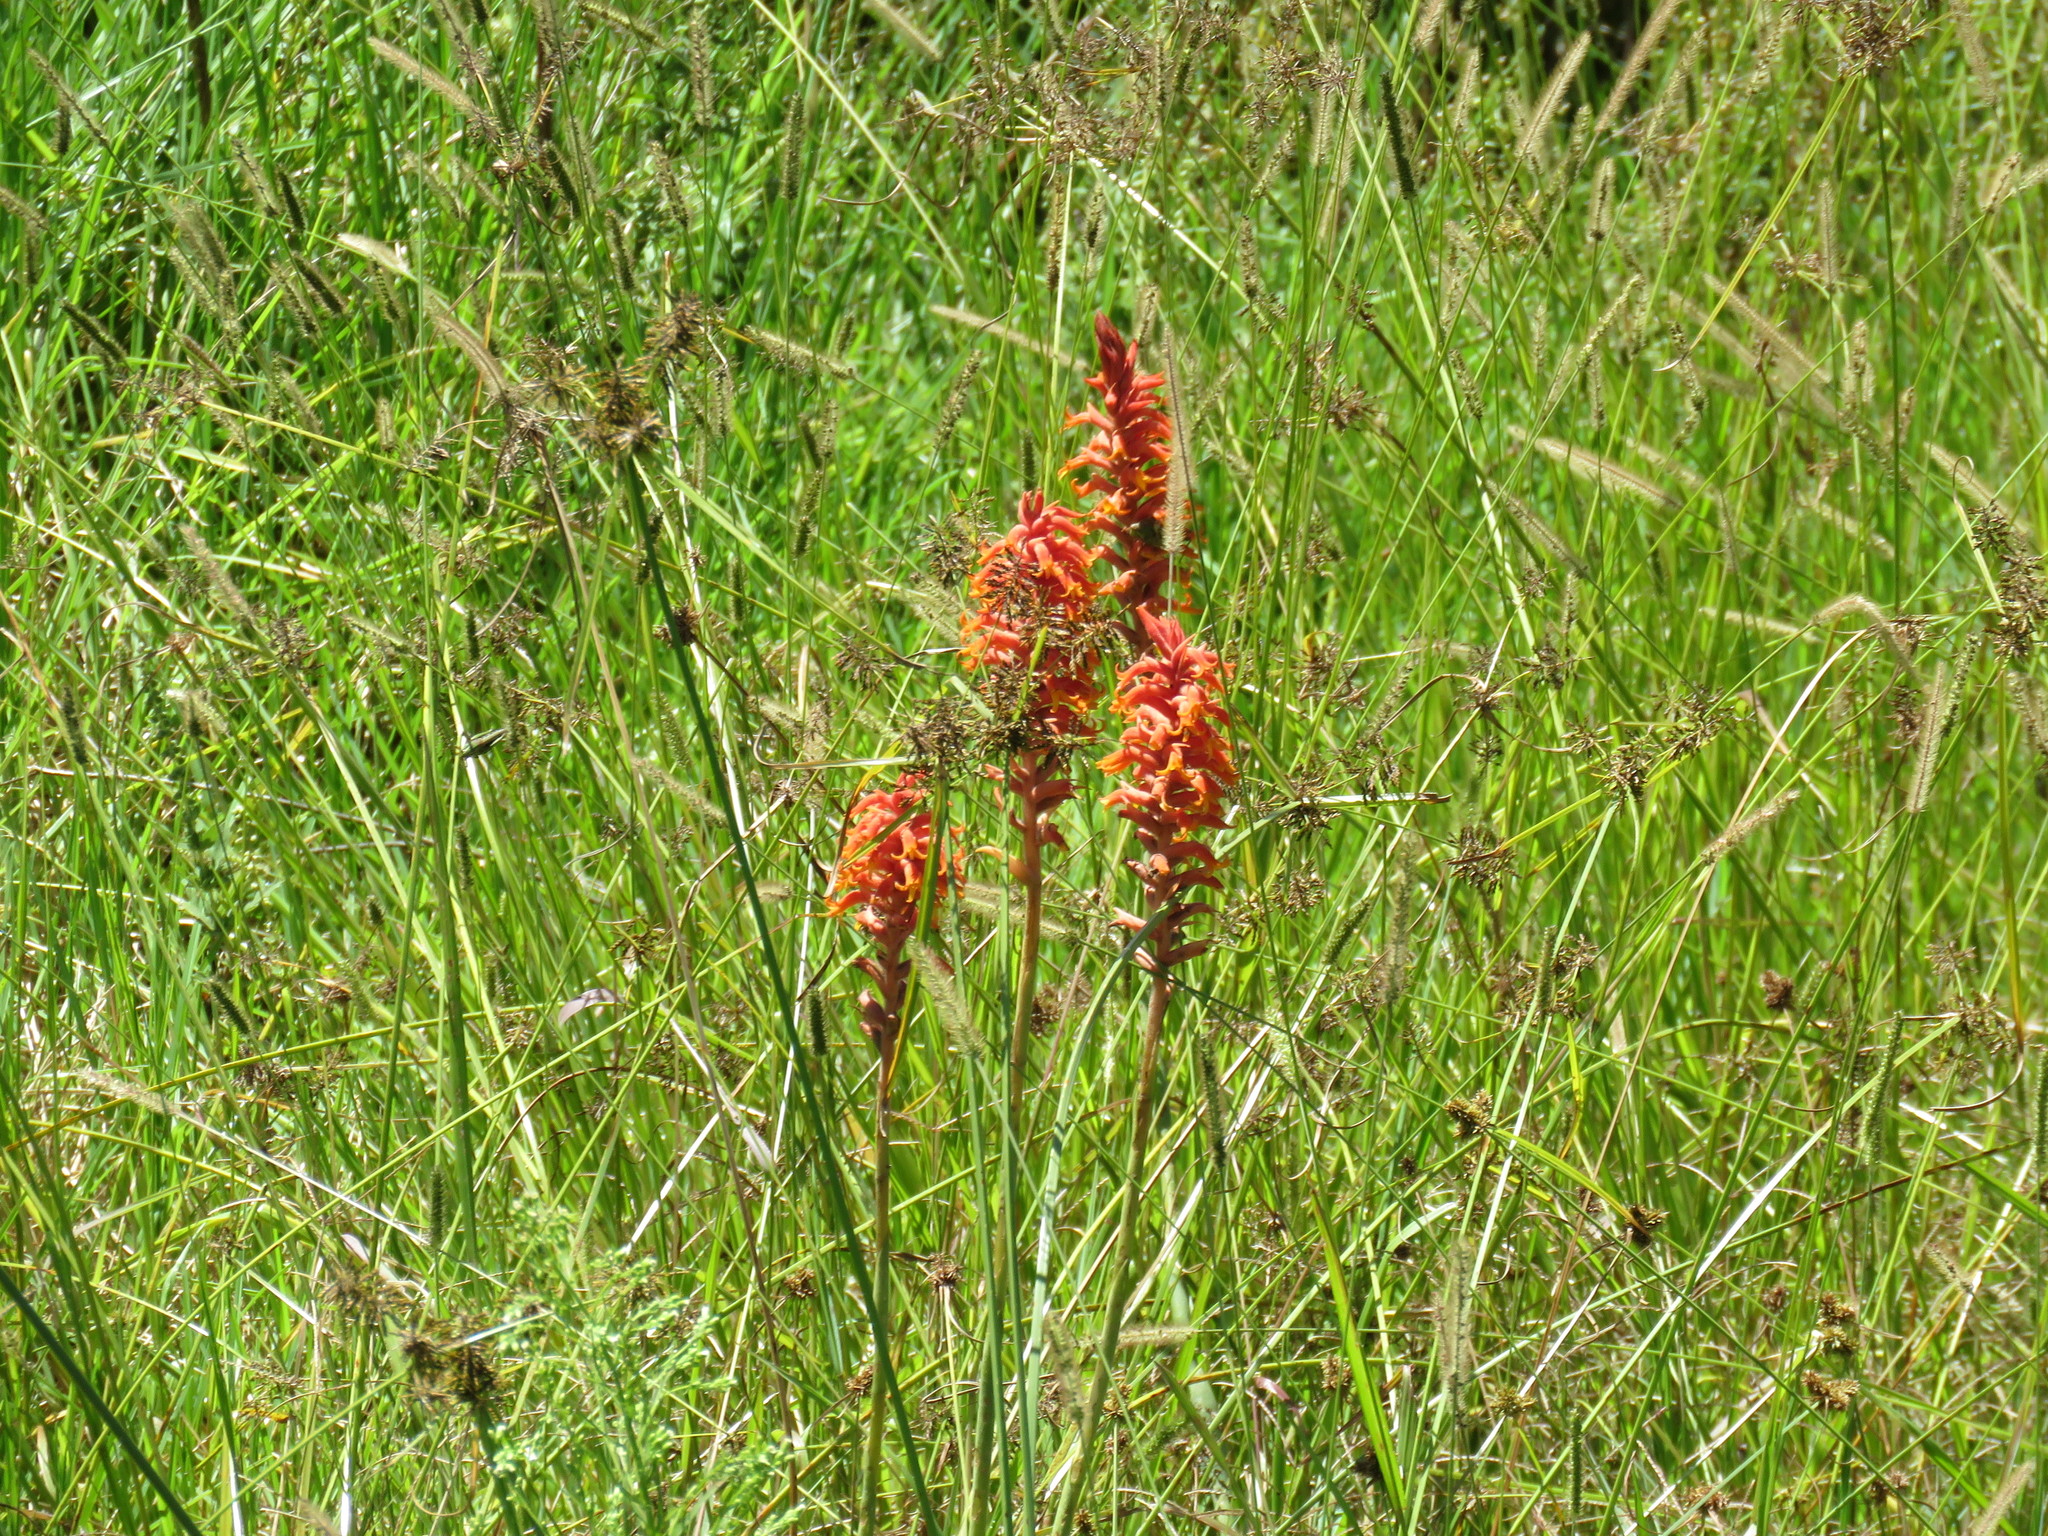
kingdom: Plantae
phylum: Tracheophyta
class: Liliopsida
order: Asparagales
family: Orchidaceae
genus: Dichromanthus
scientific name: Dichromanthus cinnabarinus
